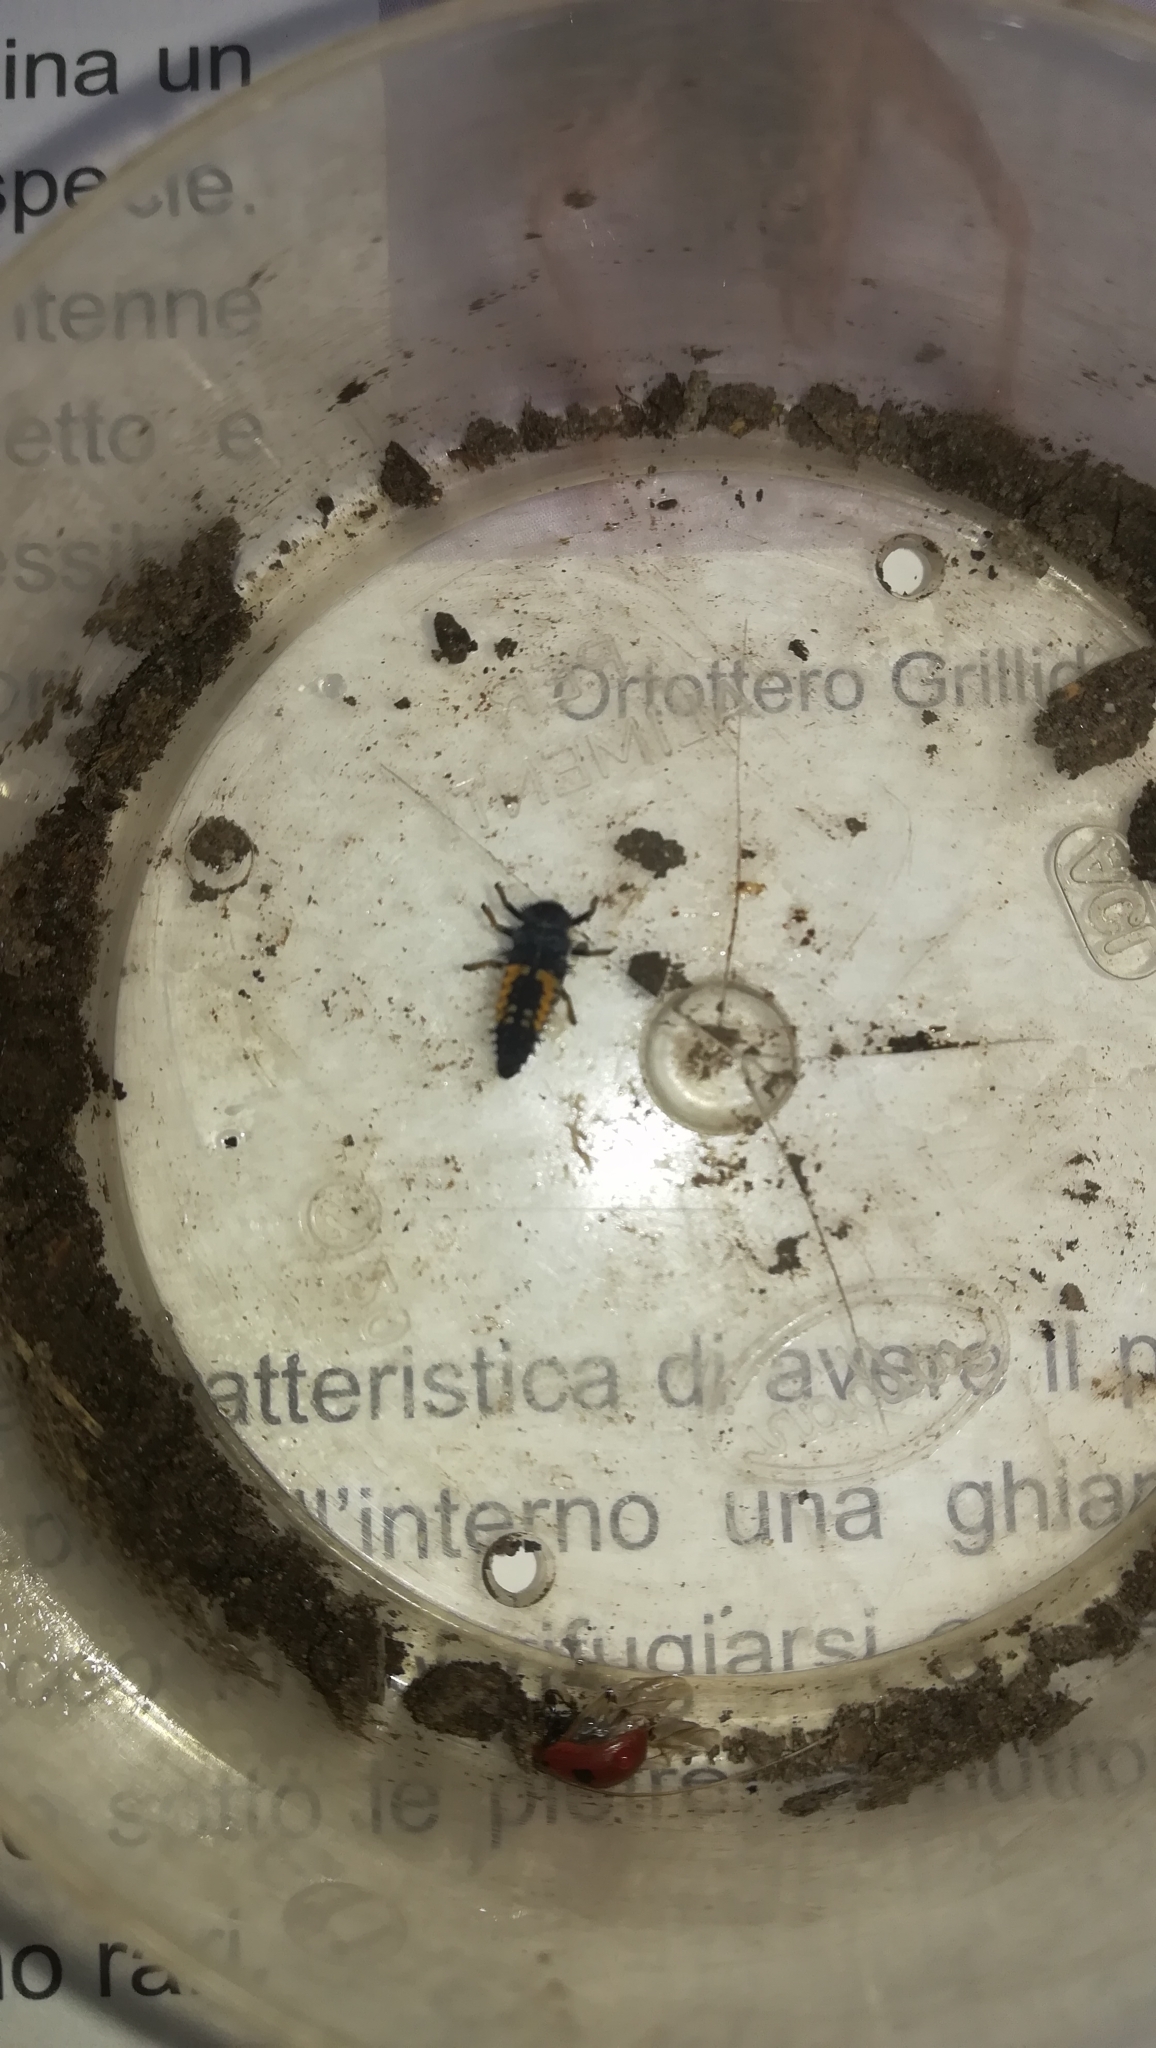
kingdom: Animalia
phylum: Arthropoda
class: Insecta
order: Coleoptera
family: Coccinellidae
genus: Harmonia
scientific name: Harmonia axyridis
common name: Harlequin ladybird
